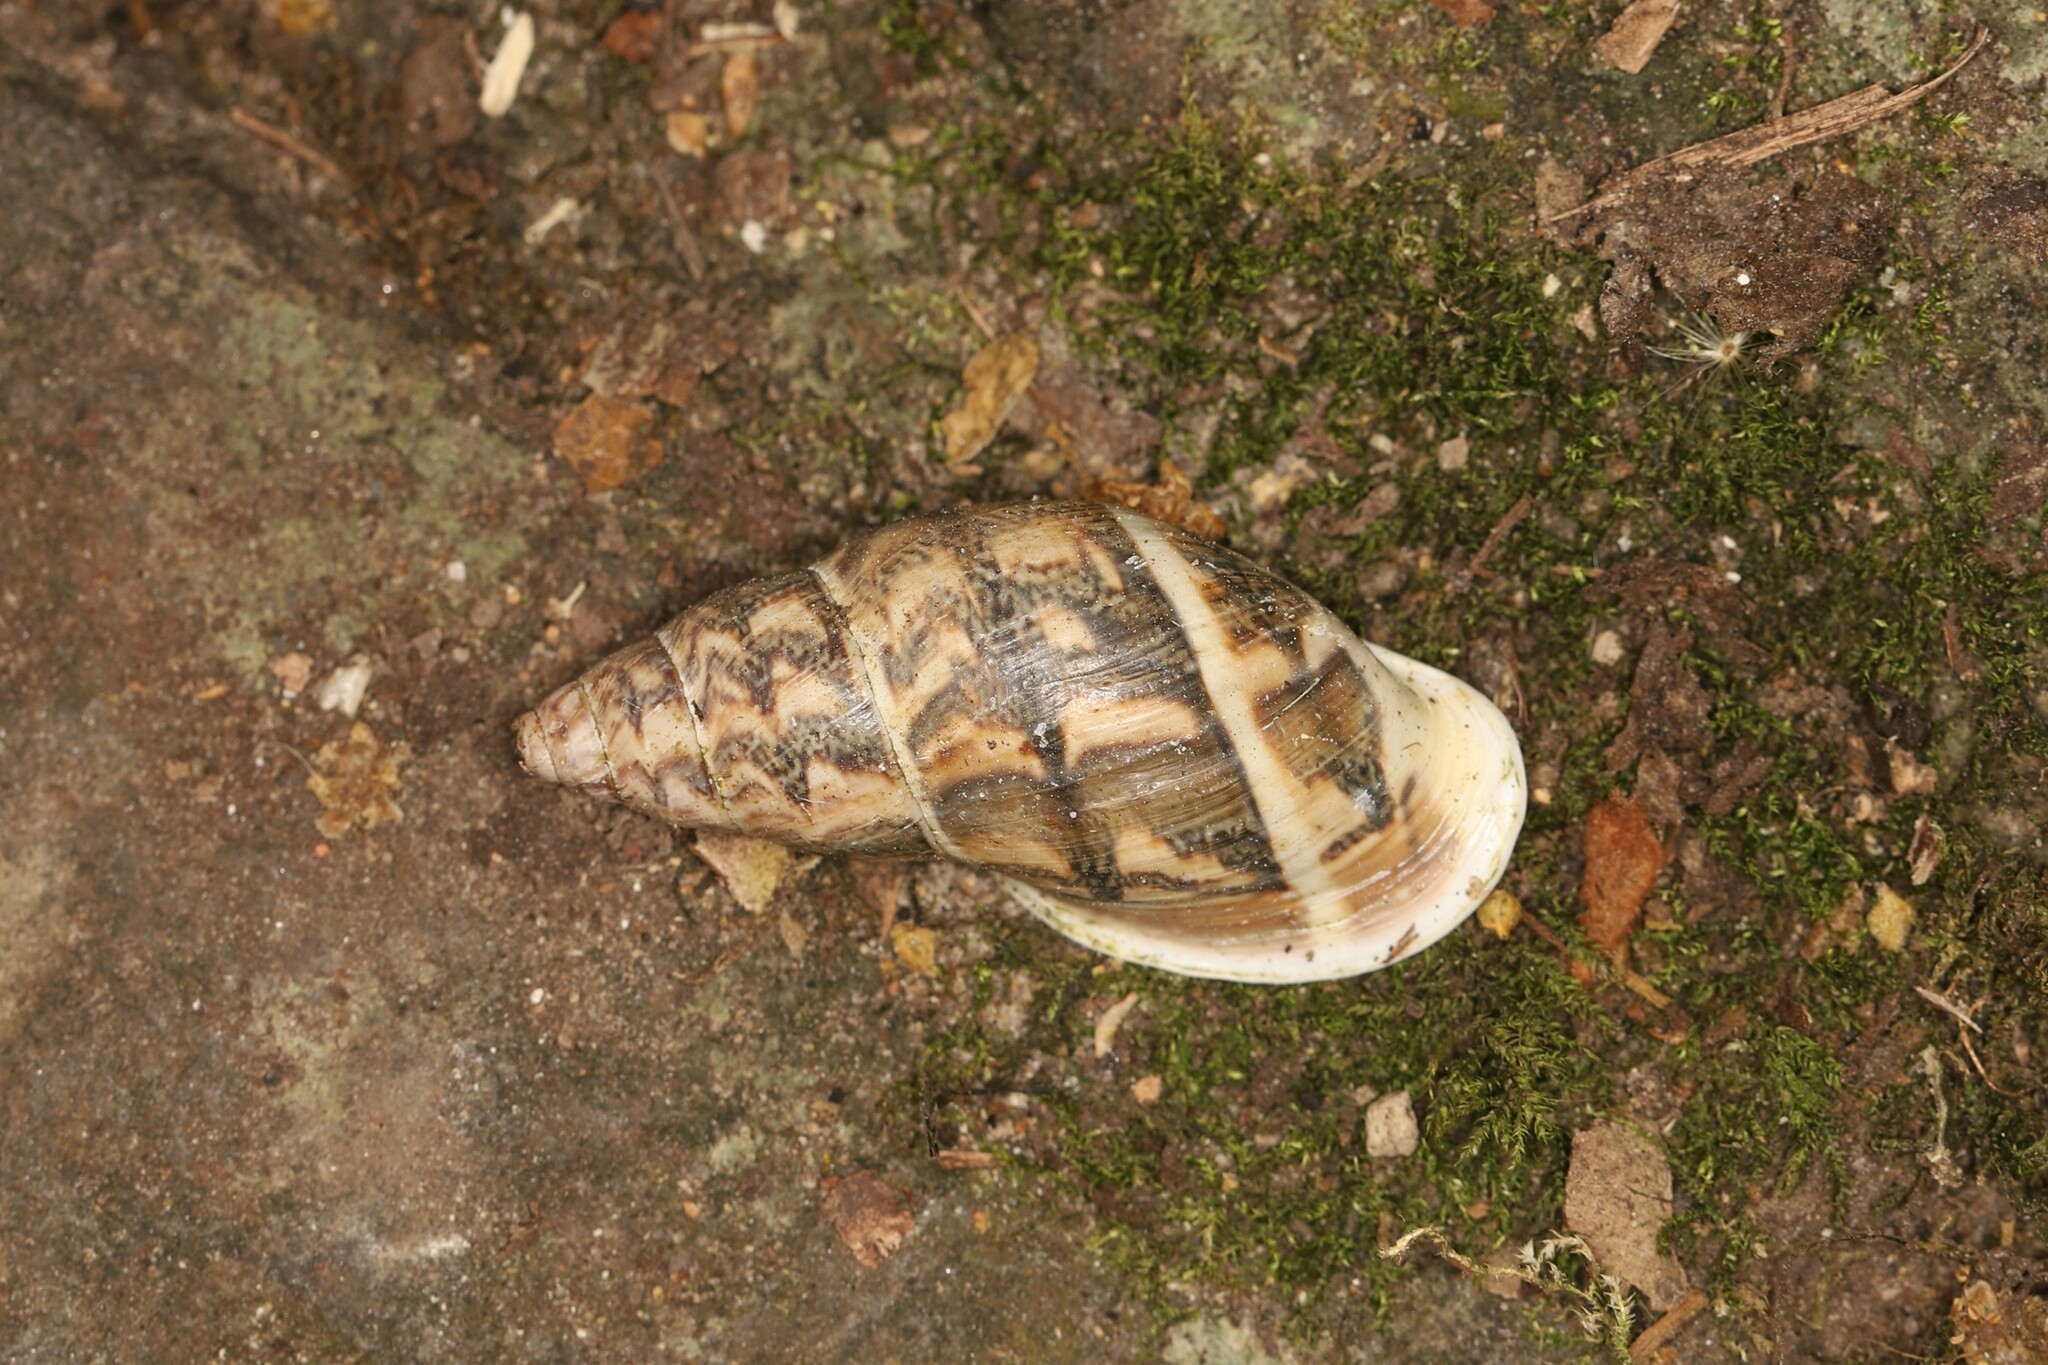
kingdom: Animalia
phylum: Mollusca
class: Gastropoda
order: Stylommatophora
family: Bulimulidae
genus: Drymaeus
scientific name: Drymaeus felix
